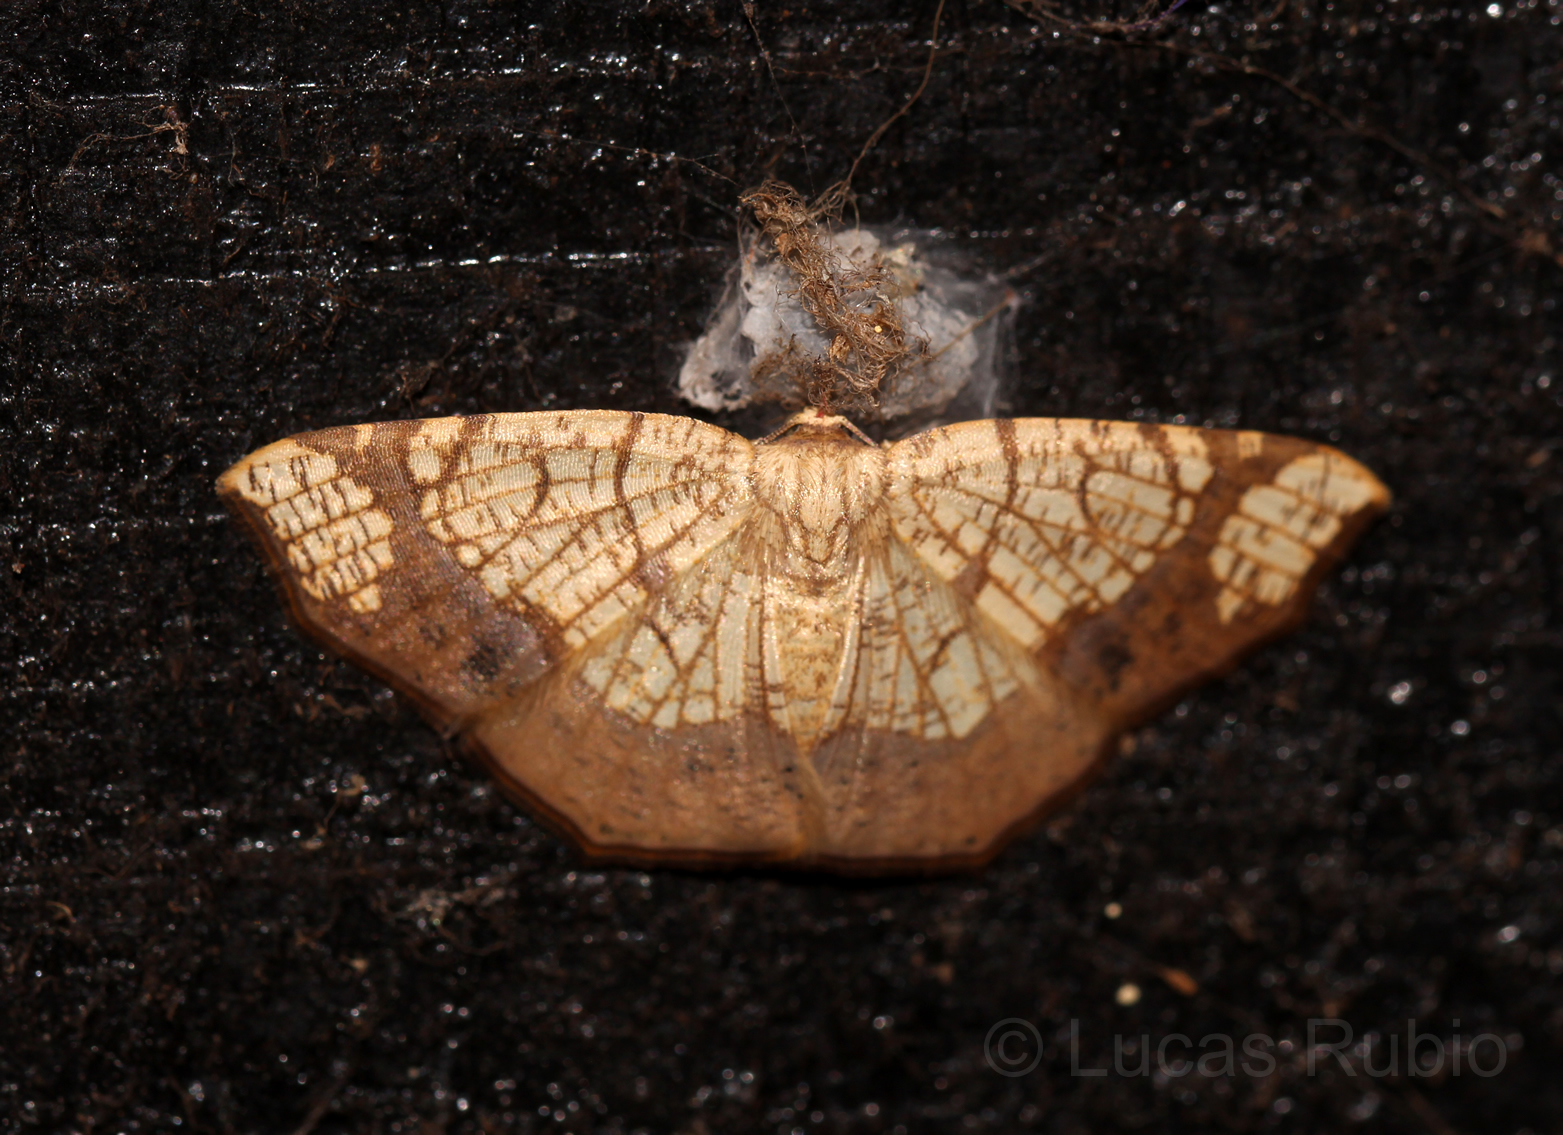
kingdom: Animalia
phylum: Arthropoda
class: Insecta
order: Lepidoptera
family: Geometridae
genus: Nematocampa
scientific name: Nematocampa reticulata
